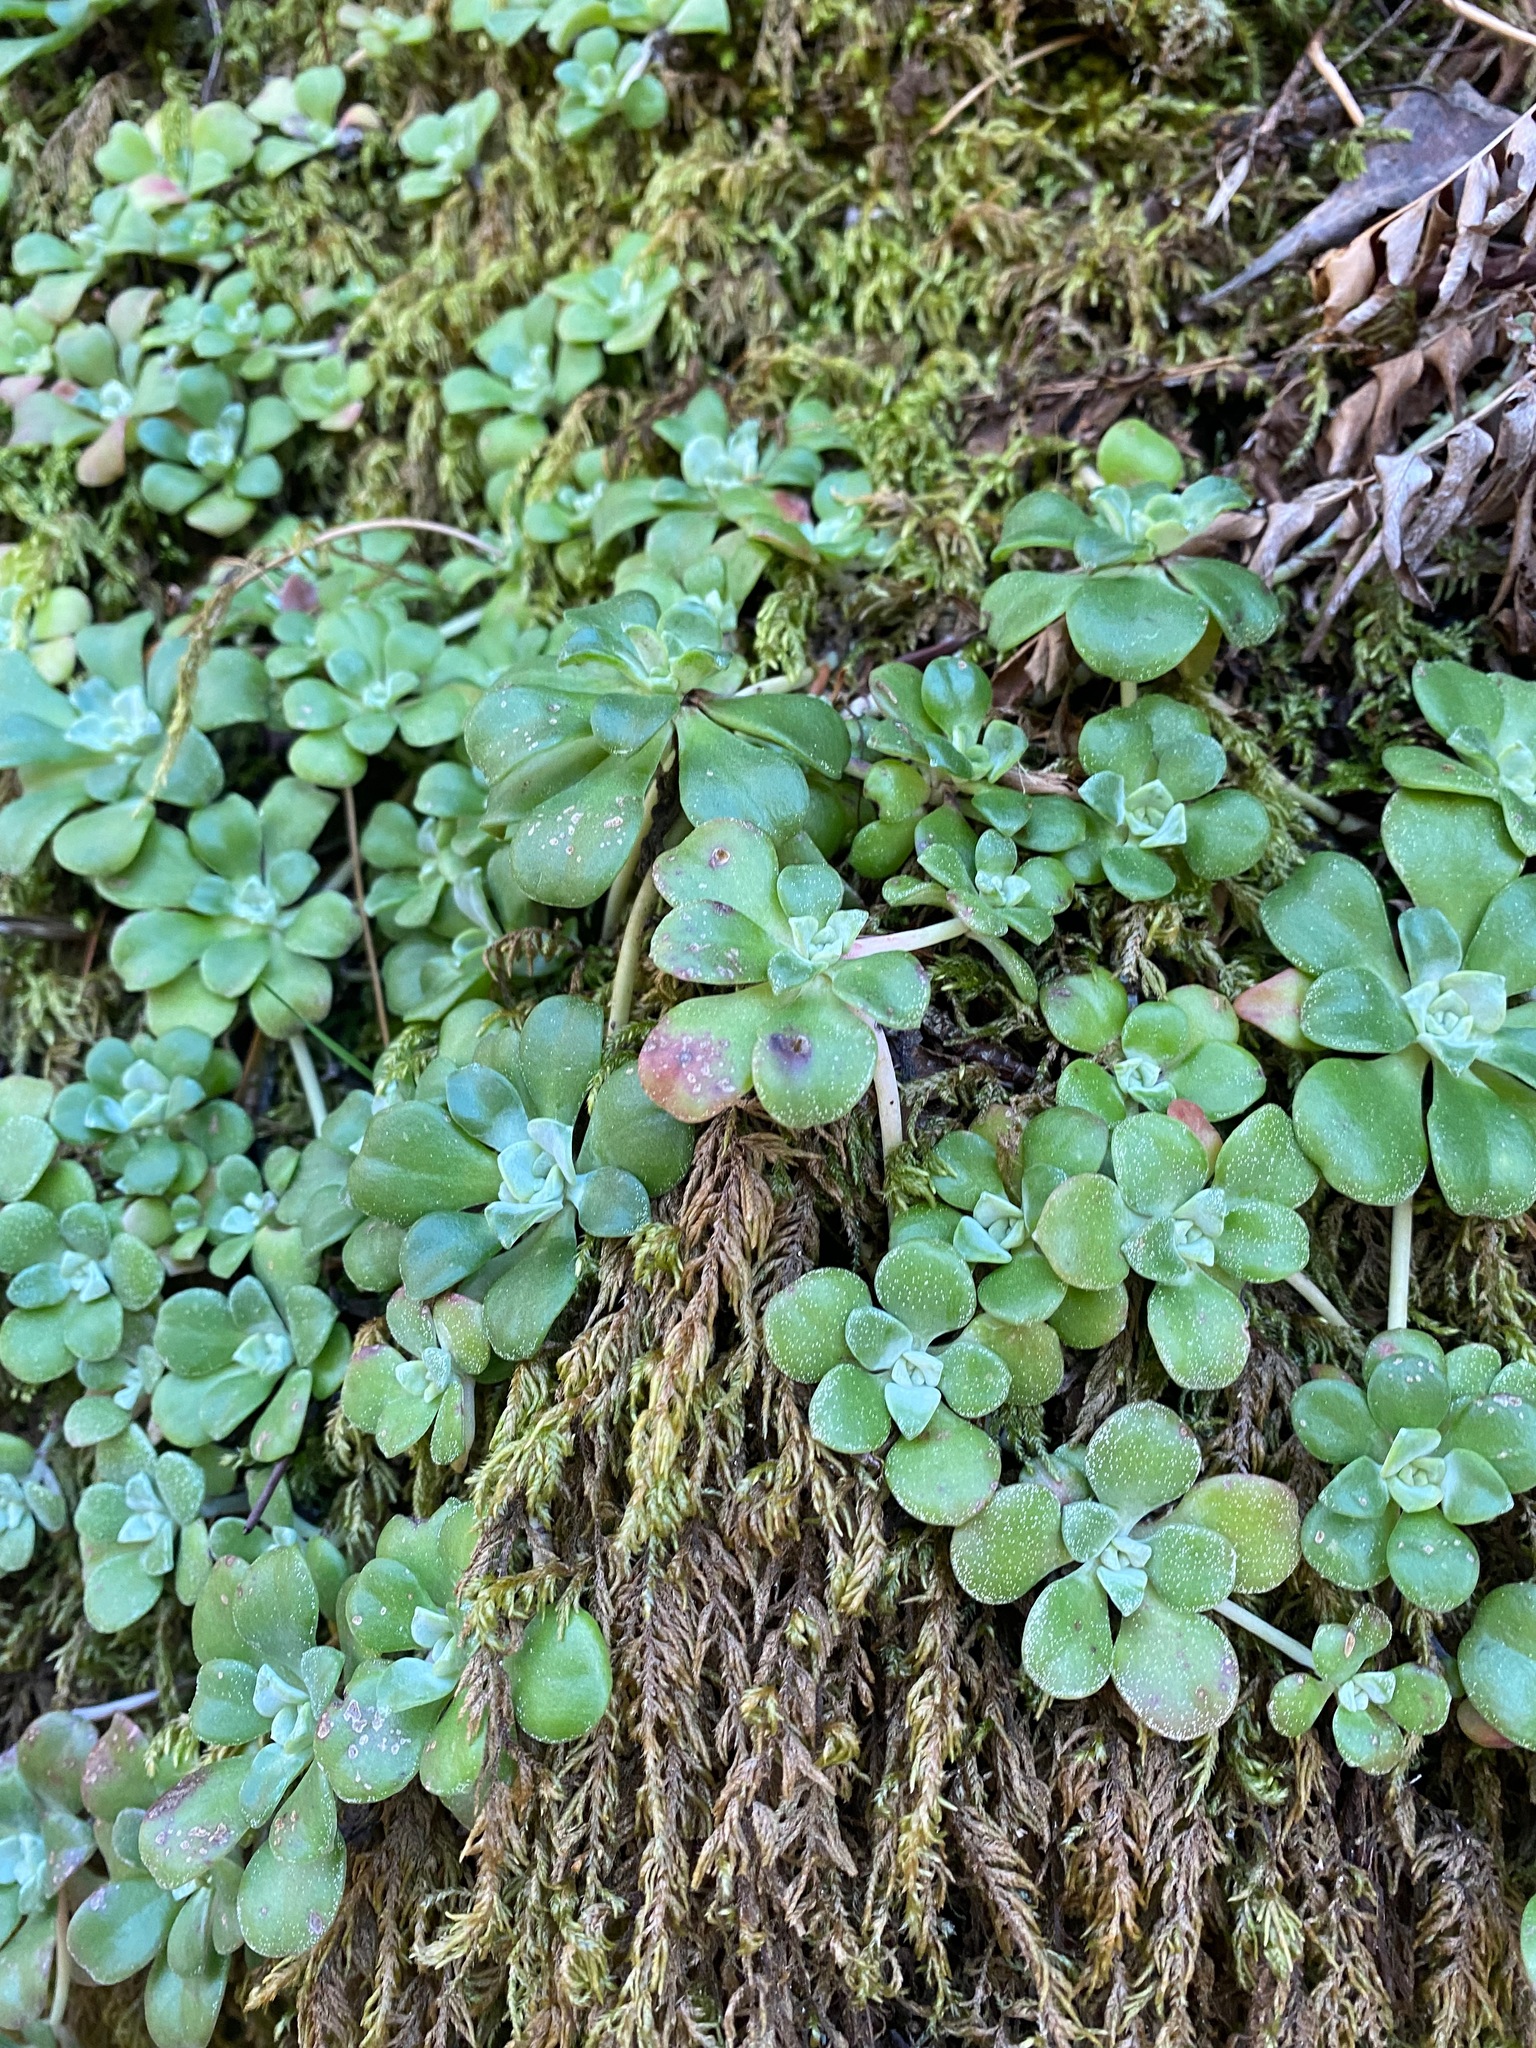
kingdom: Plantae
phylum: Tracheophyta
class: Magnoliopsida
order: Saxifragales
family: Crassulaceae
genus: Sedum
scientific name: Sedum spathulifolium
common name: Colorado stonecrop
